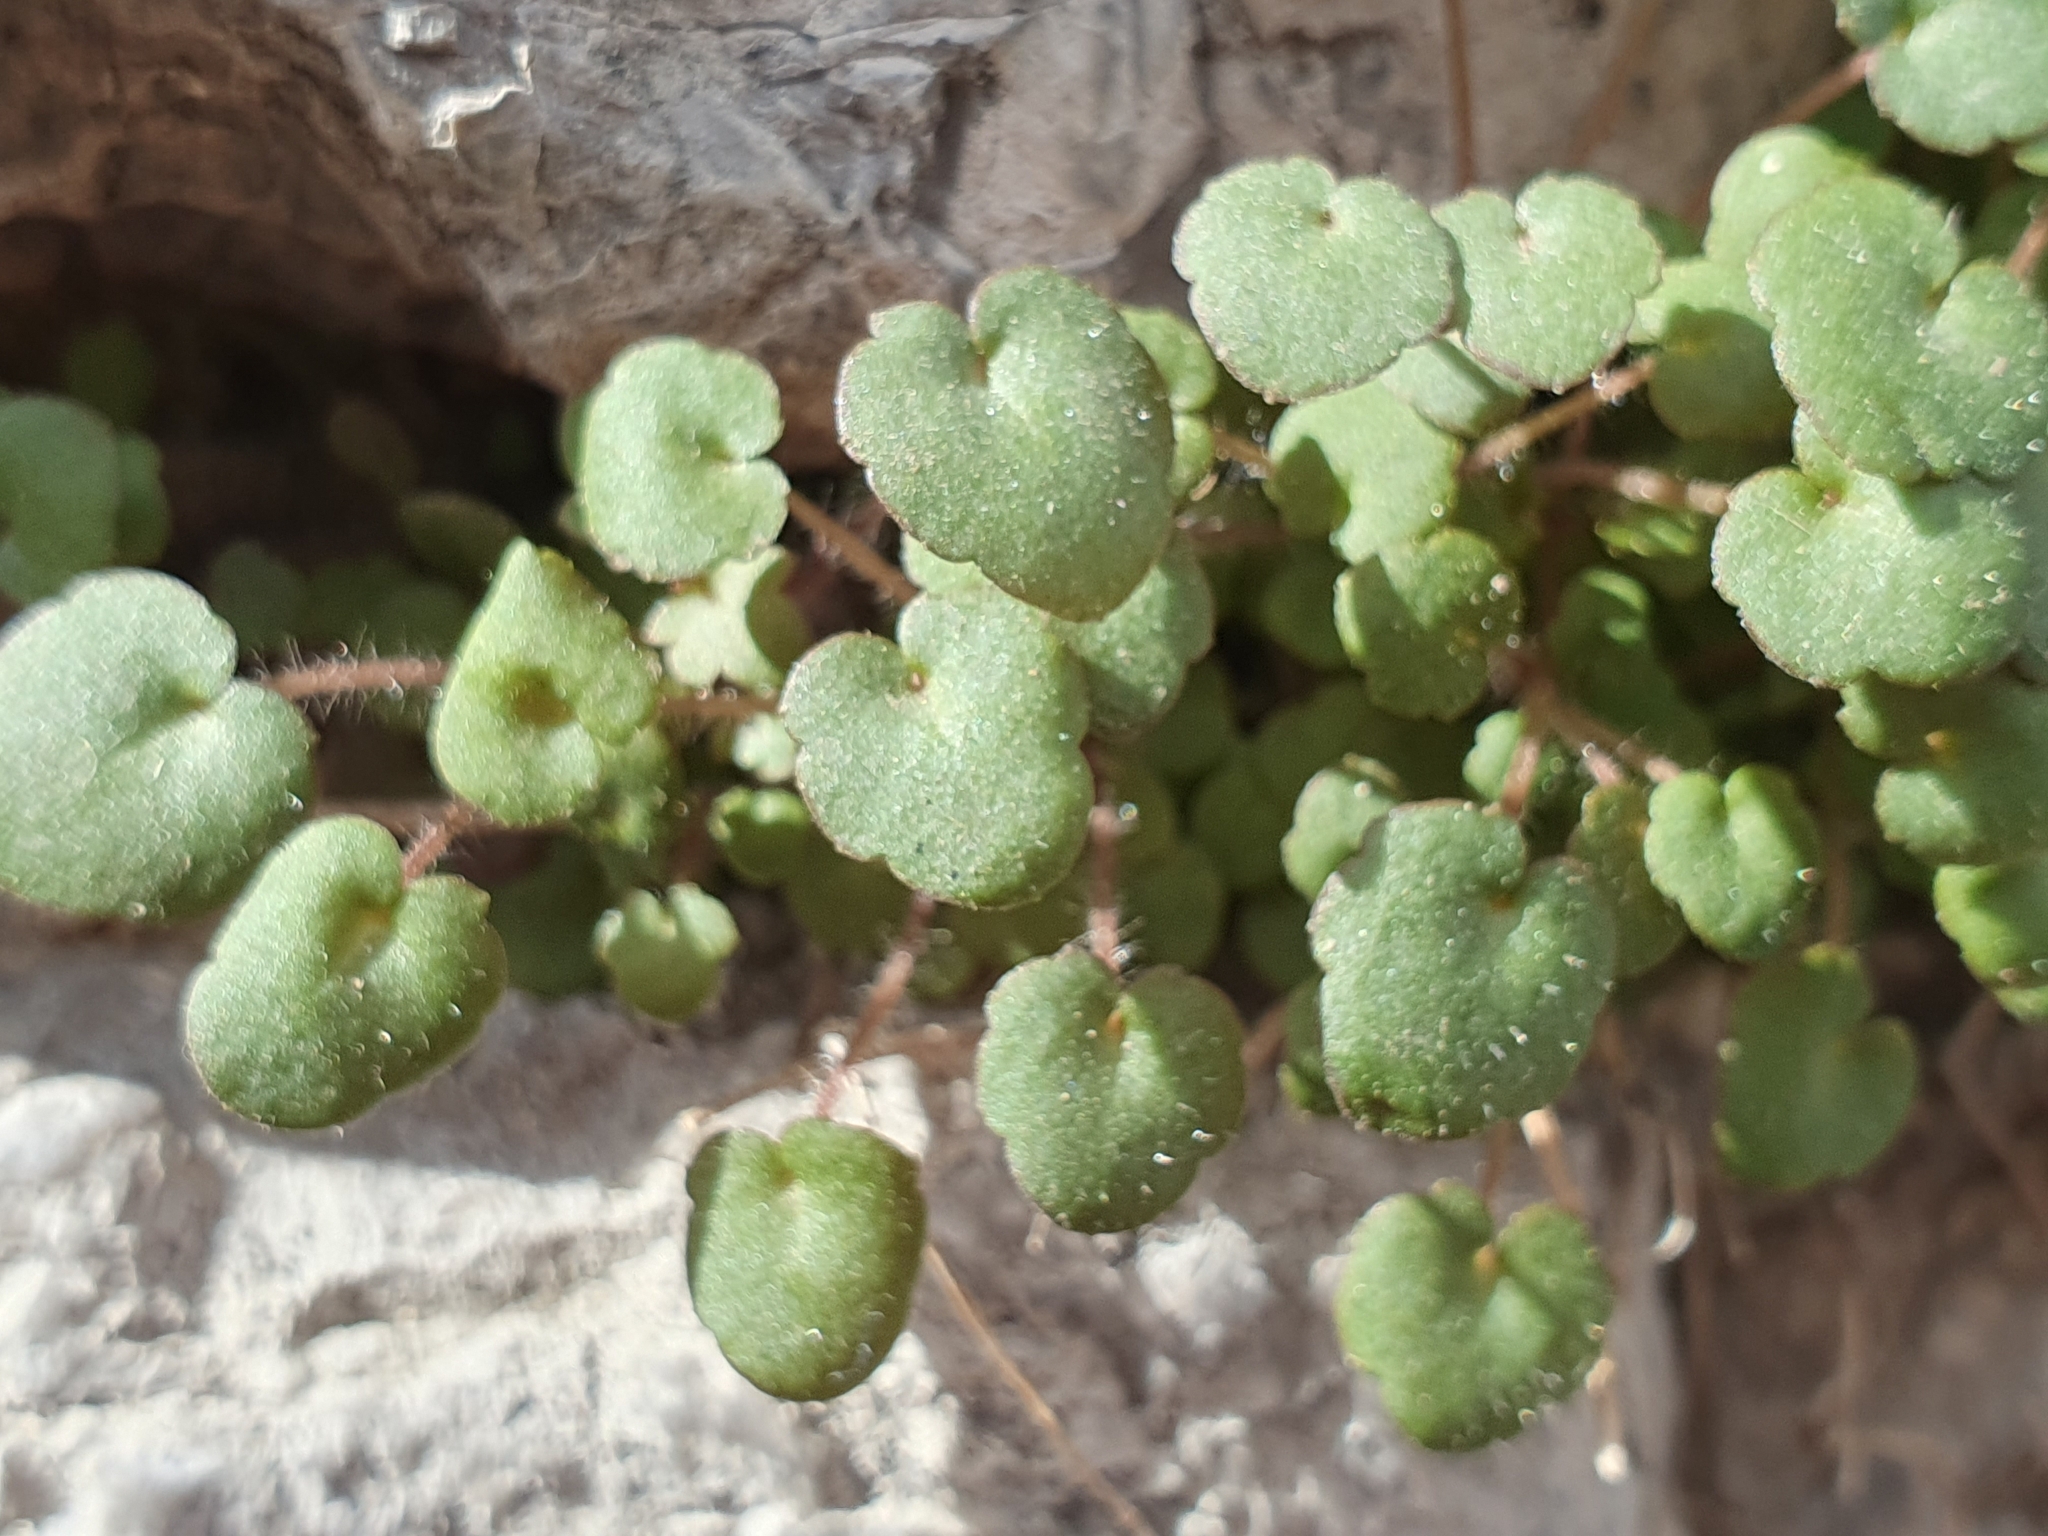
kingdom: Plantae
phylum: Tracheophyta
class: Magnoliopsida
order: Lamiales
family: Plantaginaceae
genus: Cymbalaria
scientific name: Cymbalaria muralis
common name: Ivy-leaved toadflax
